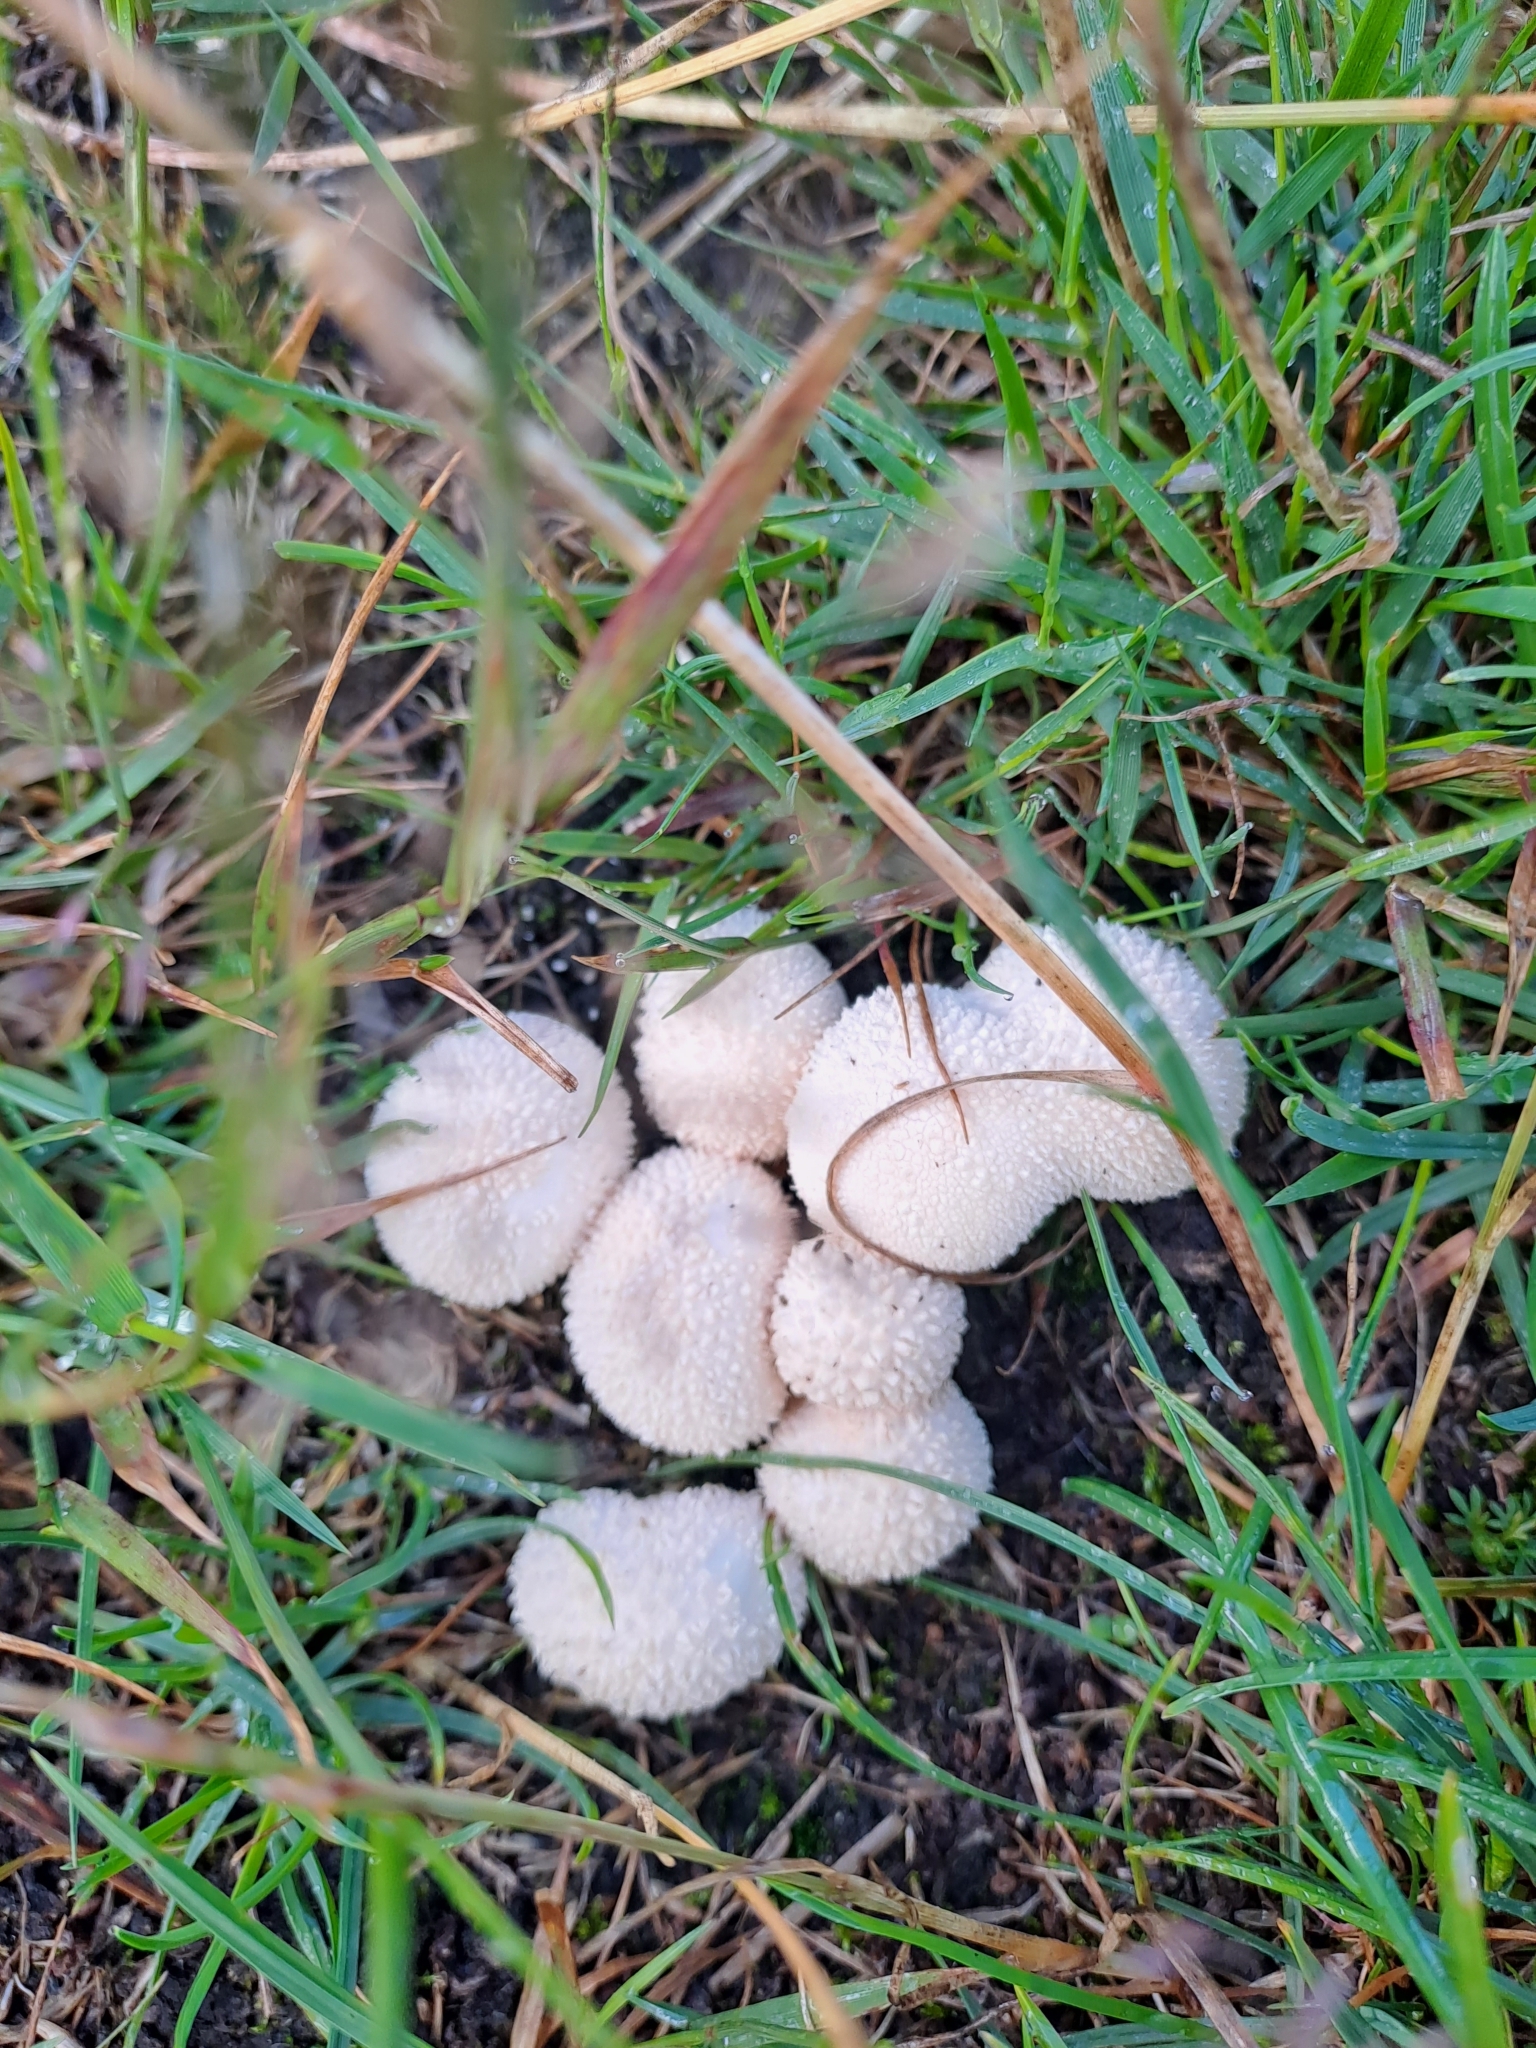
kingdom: Fungi
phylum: Basidiomycota
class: Agaricomycetes
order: Agaricales
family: Lycoperdaceae
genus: Lycoperdon
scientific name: Lycoperdon pratense
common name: Meadow puffball
